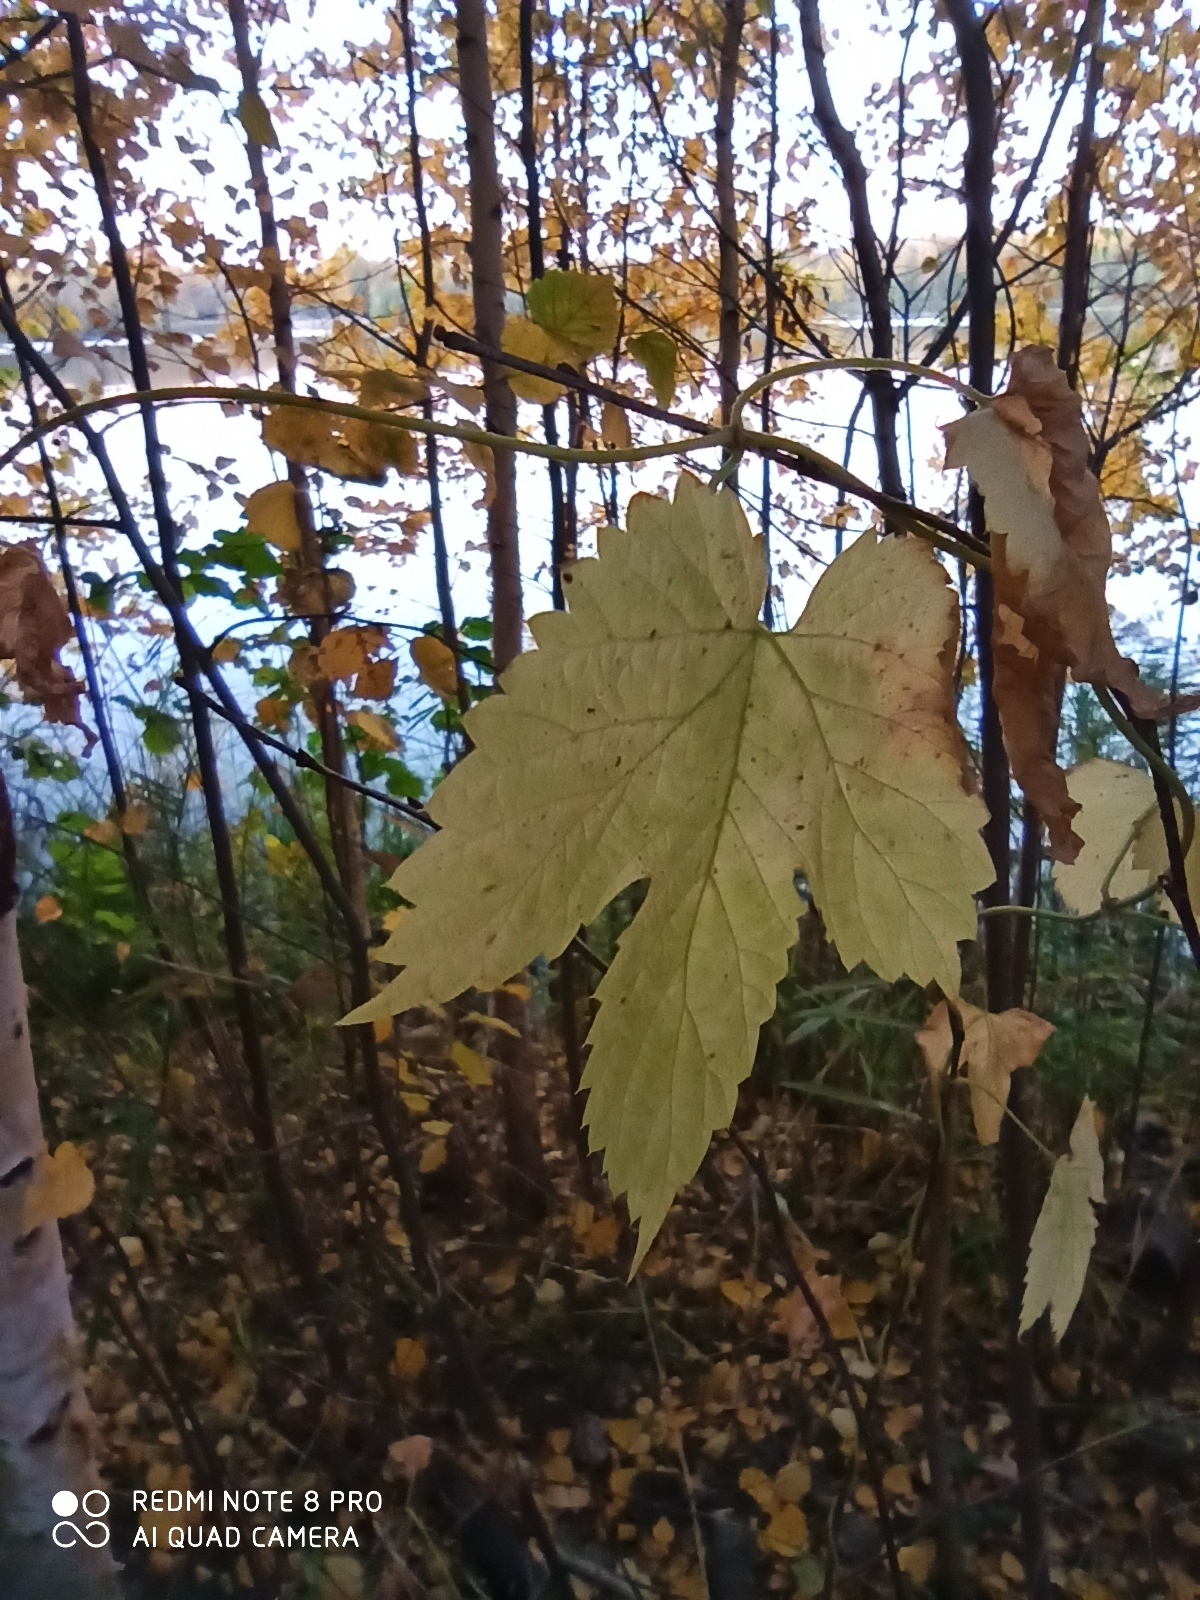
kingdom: Plantae
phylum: Tracheophyta
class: Magnoliopsida
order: Rosales
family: Cannabaceae
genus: Humulus
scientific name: Humulus lupulus
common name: Hop
